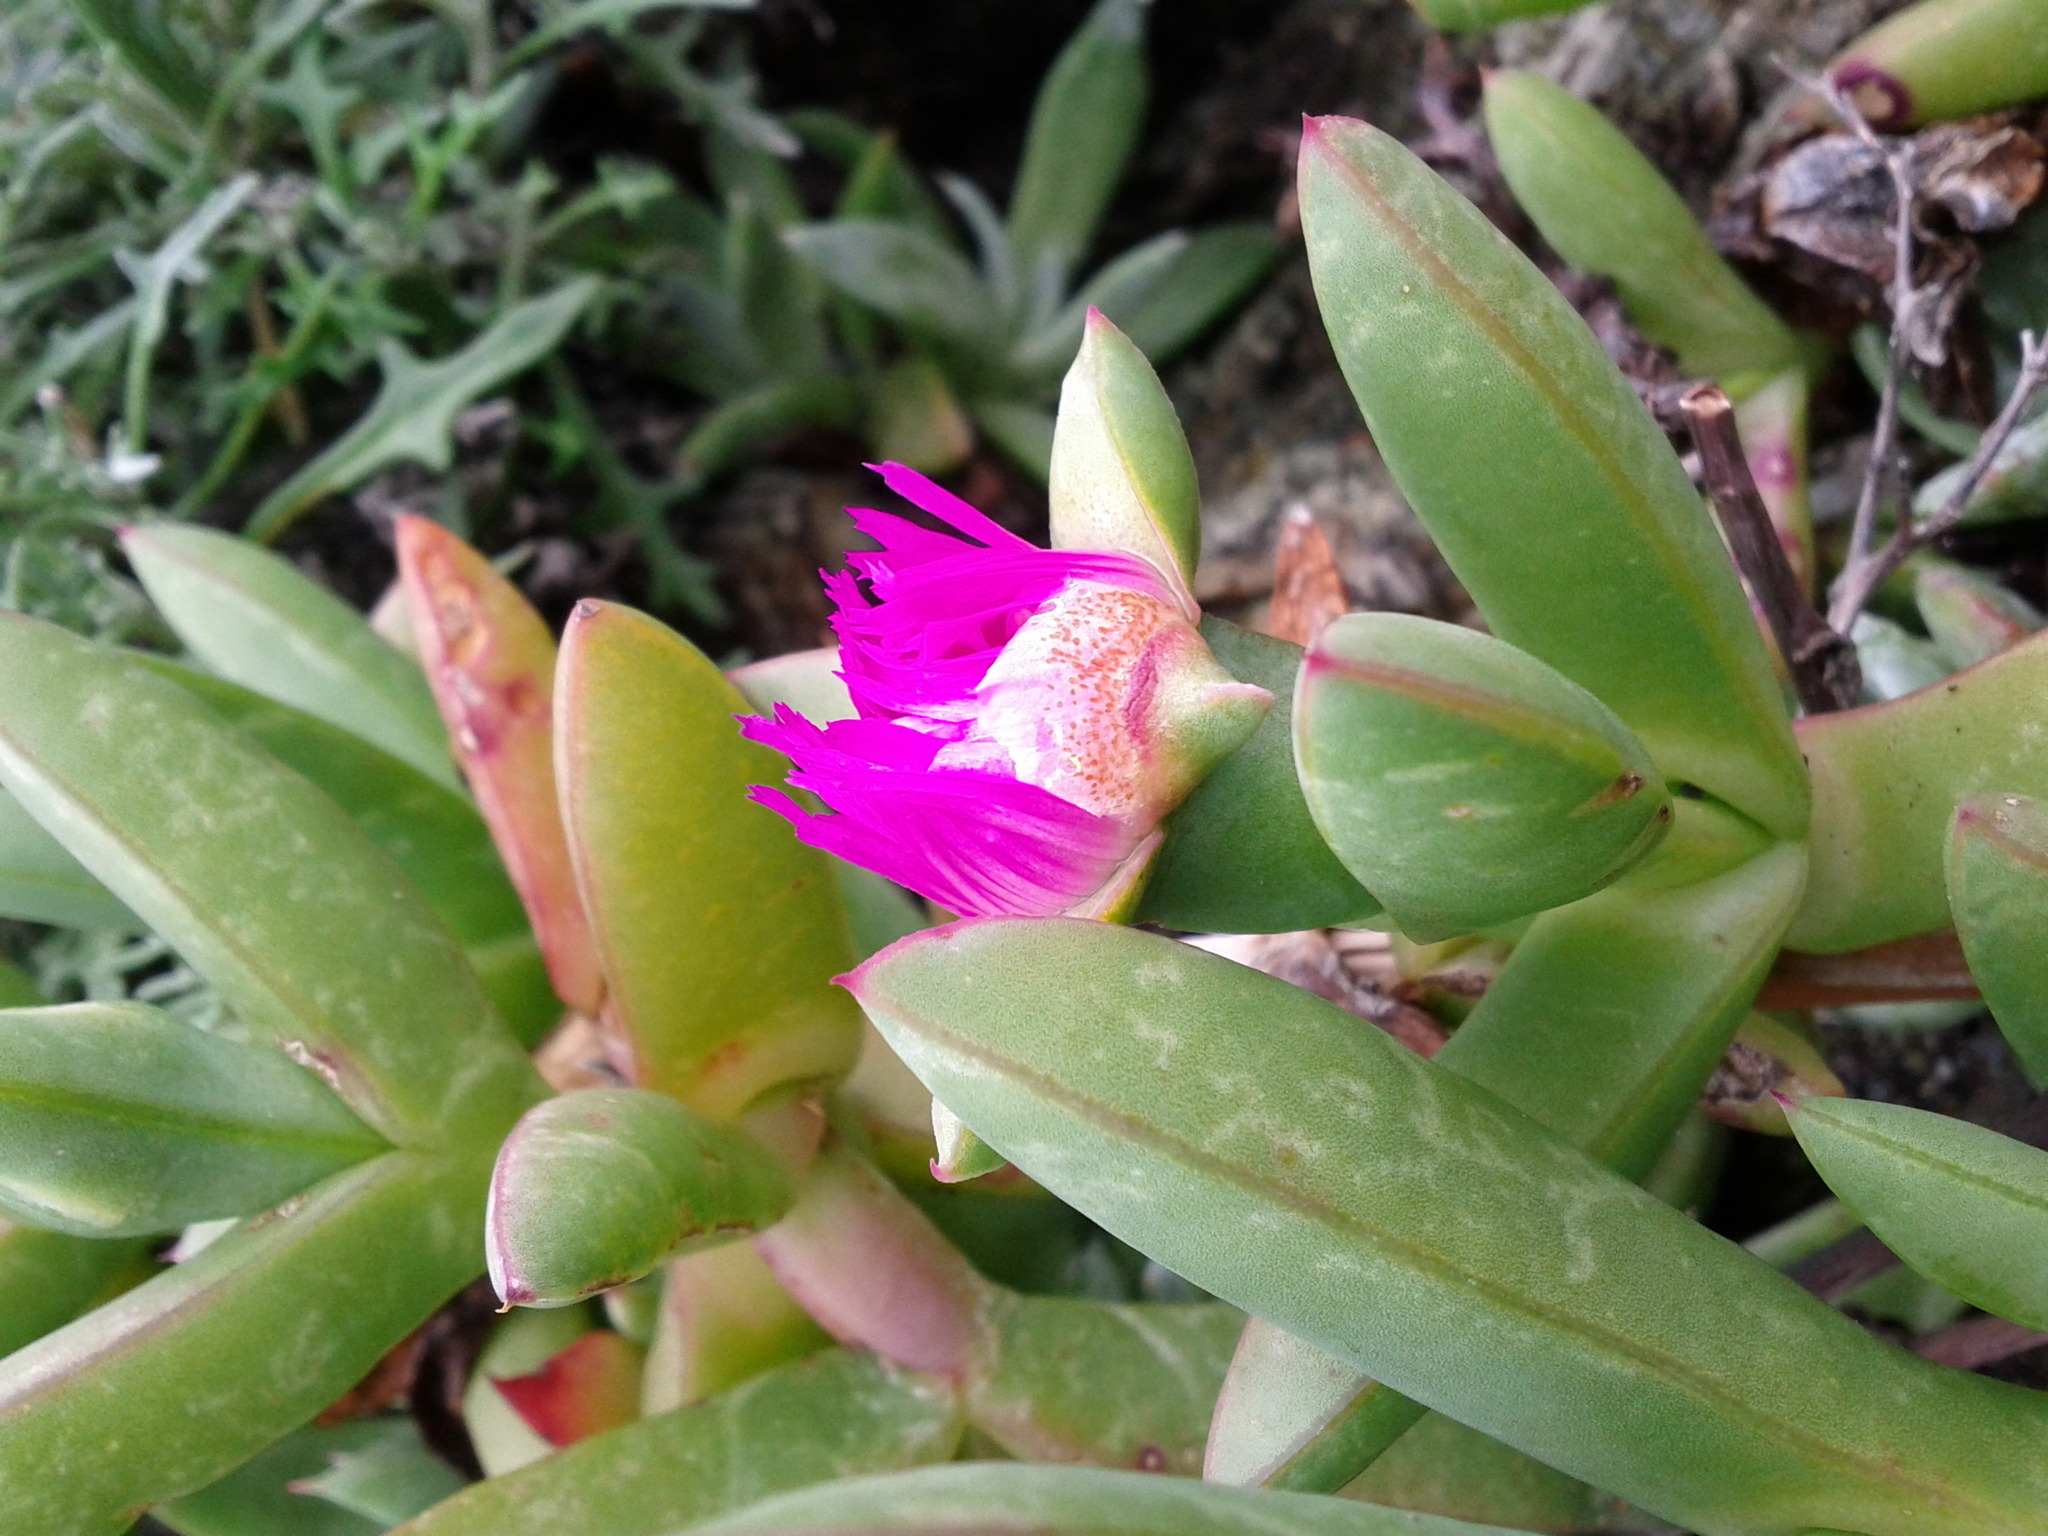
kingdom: Plantae
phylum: Tracheophyta
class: Magnoliopsida
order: Caryophyllales
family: Aizoaceae
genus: Carpobrotus
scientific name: Carpobrotus chilensis
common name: Sea fig
